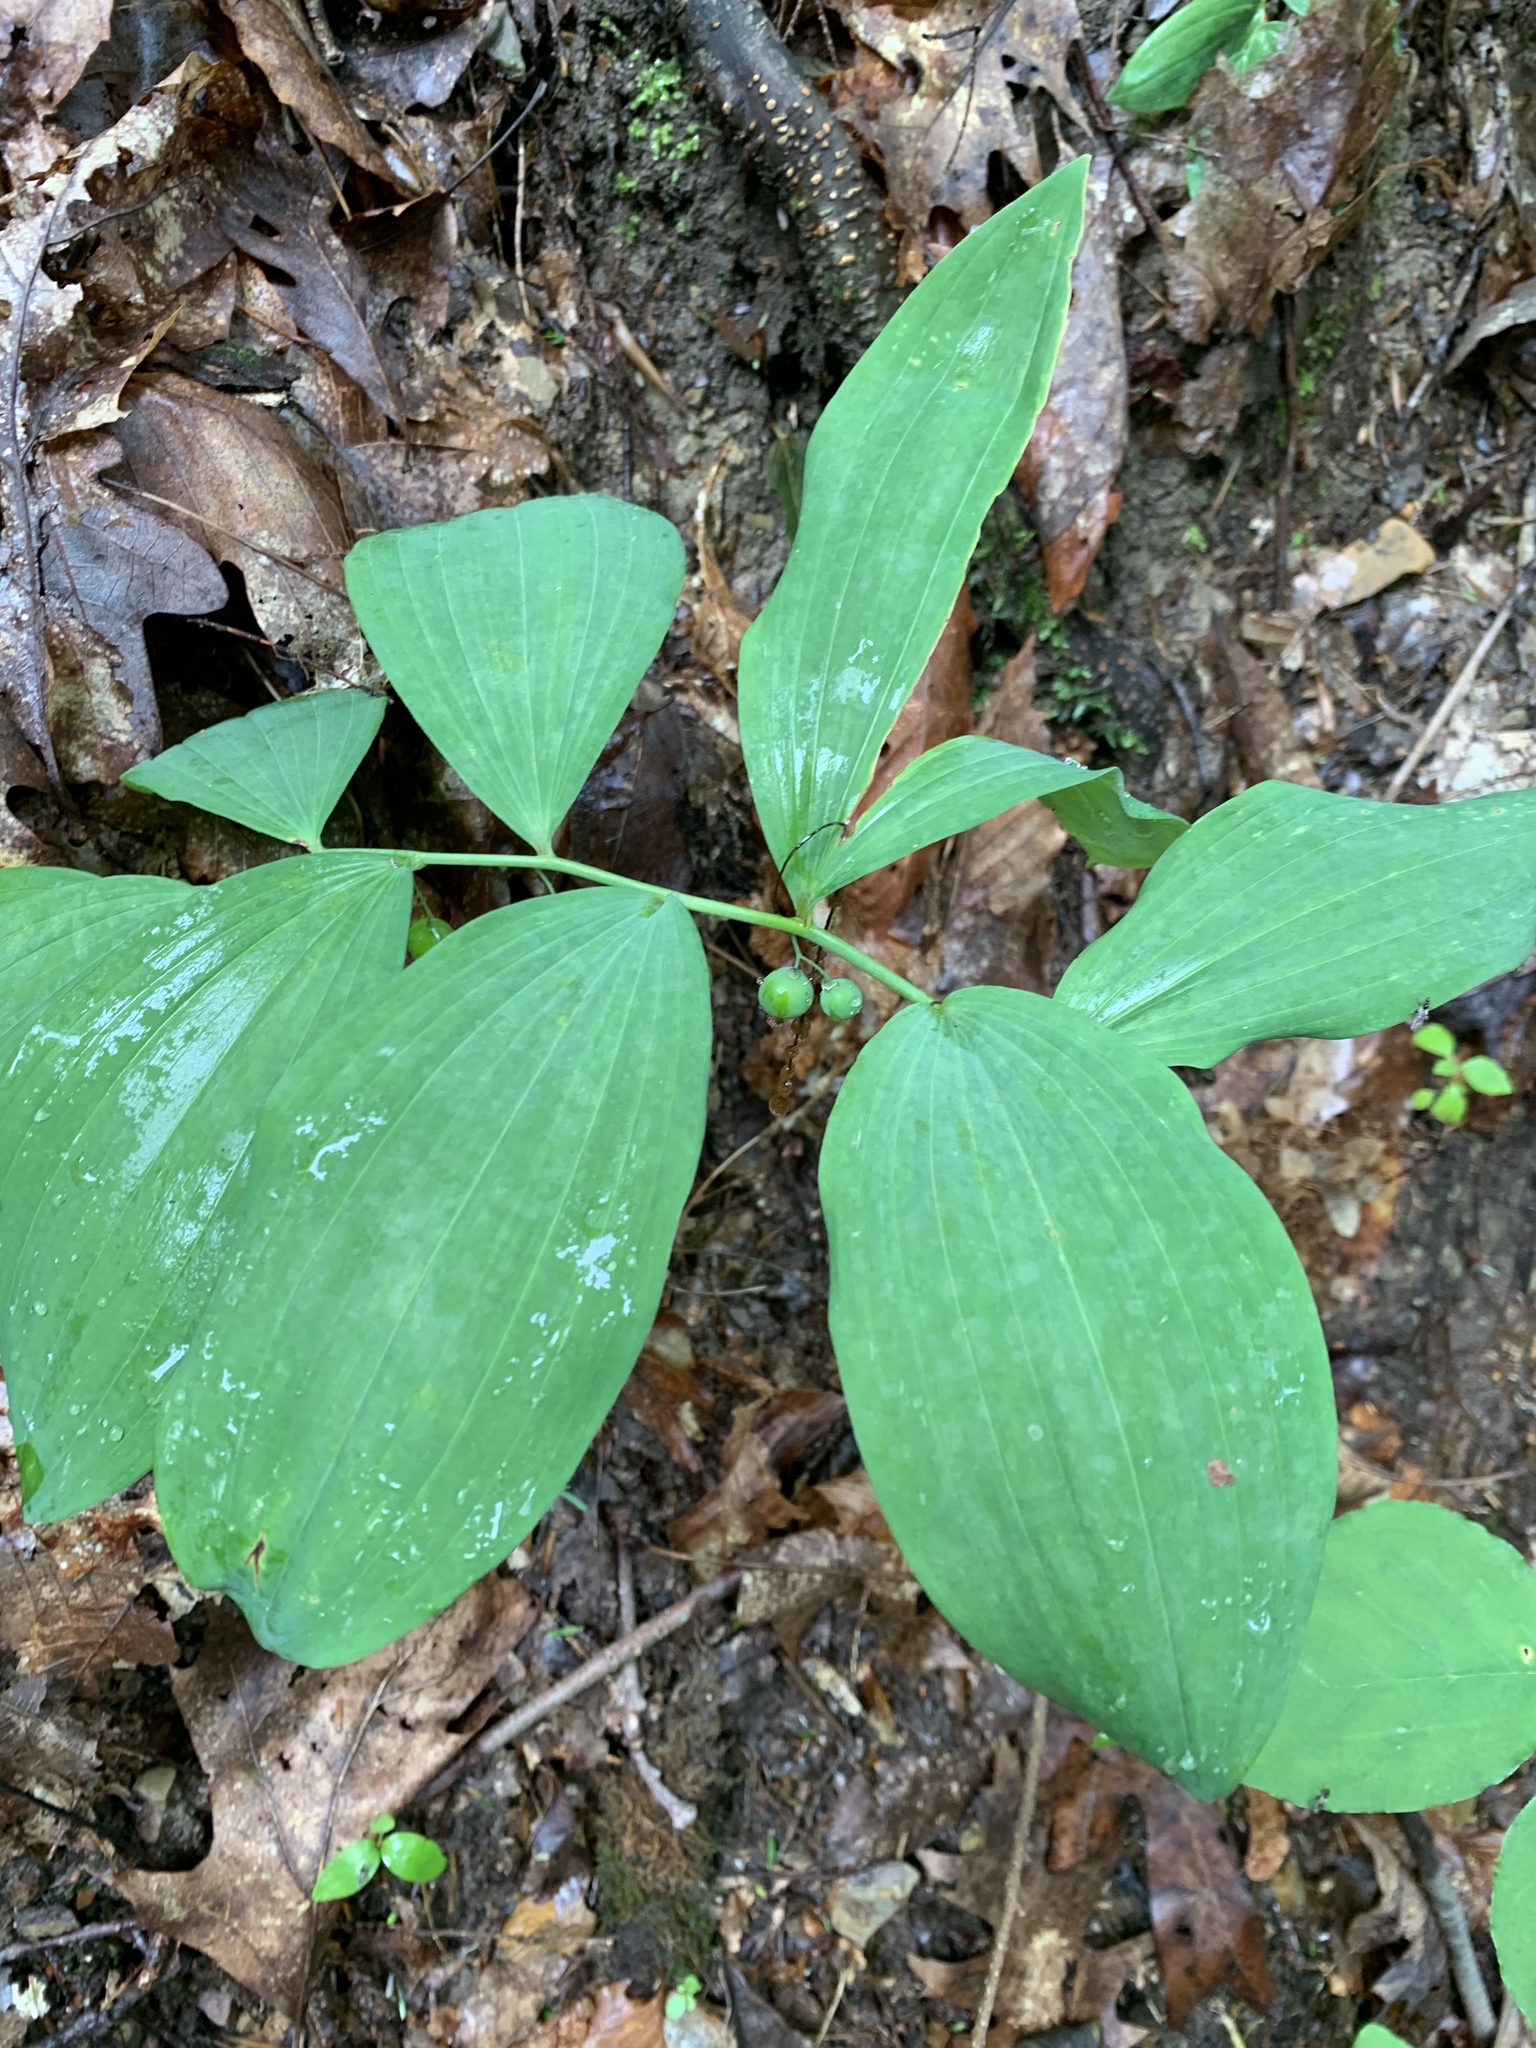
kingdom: Plantae
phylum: Tracheophyta
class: Liliopsida
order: Asparagales
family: Asparagaceae
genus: Polygonatum
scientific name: Polygonatum pubescens
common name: Downy solomon's seal
